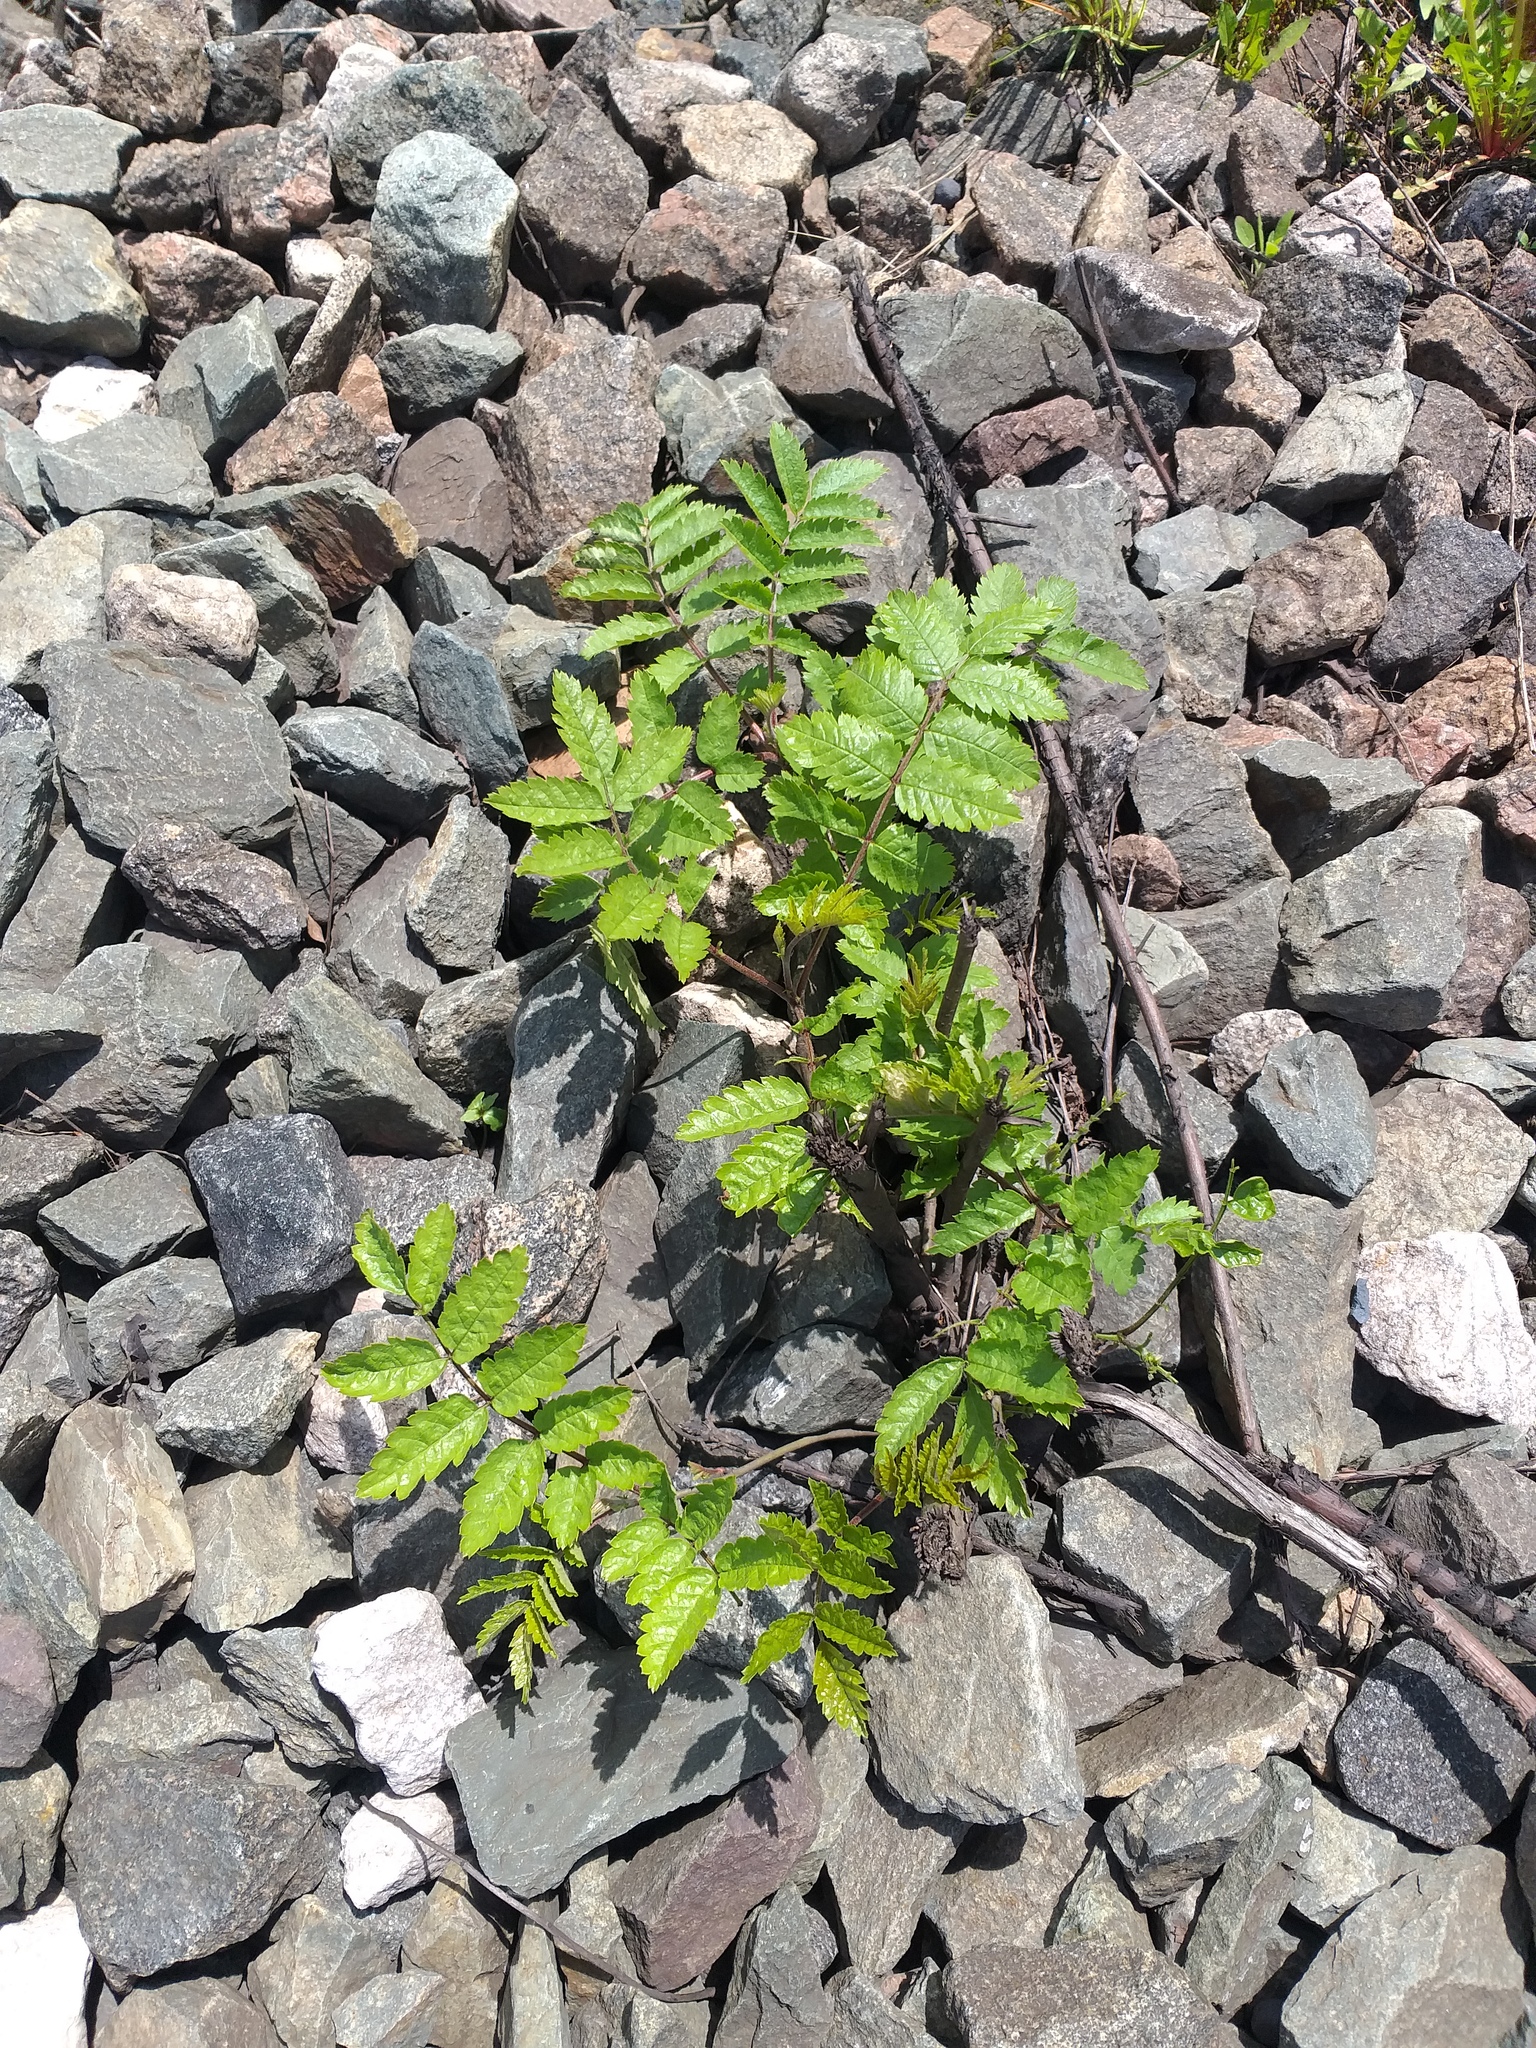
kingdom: Plantae
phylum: Tracheophyta
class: Magnoliopsida
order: Rosales
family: Rosaceae
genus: Sorbus
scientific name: Sorbus aucuparia
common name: Rowan
